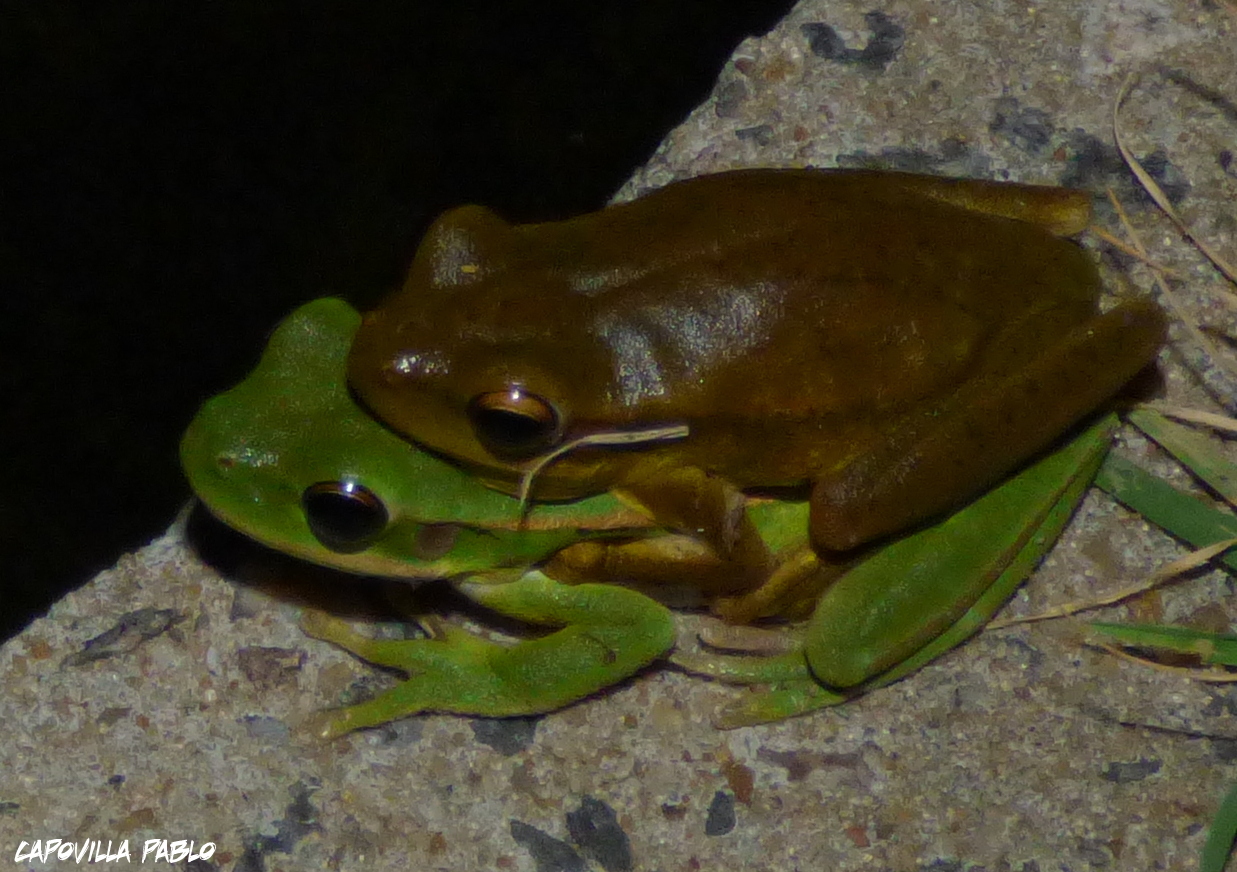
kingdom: Animalia
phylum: Chordata
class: Amphibia
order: Anura
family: Hylidae
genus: Boana
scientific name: Boana pulchella
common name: Montevideo treefrog
